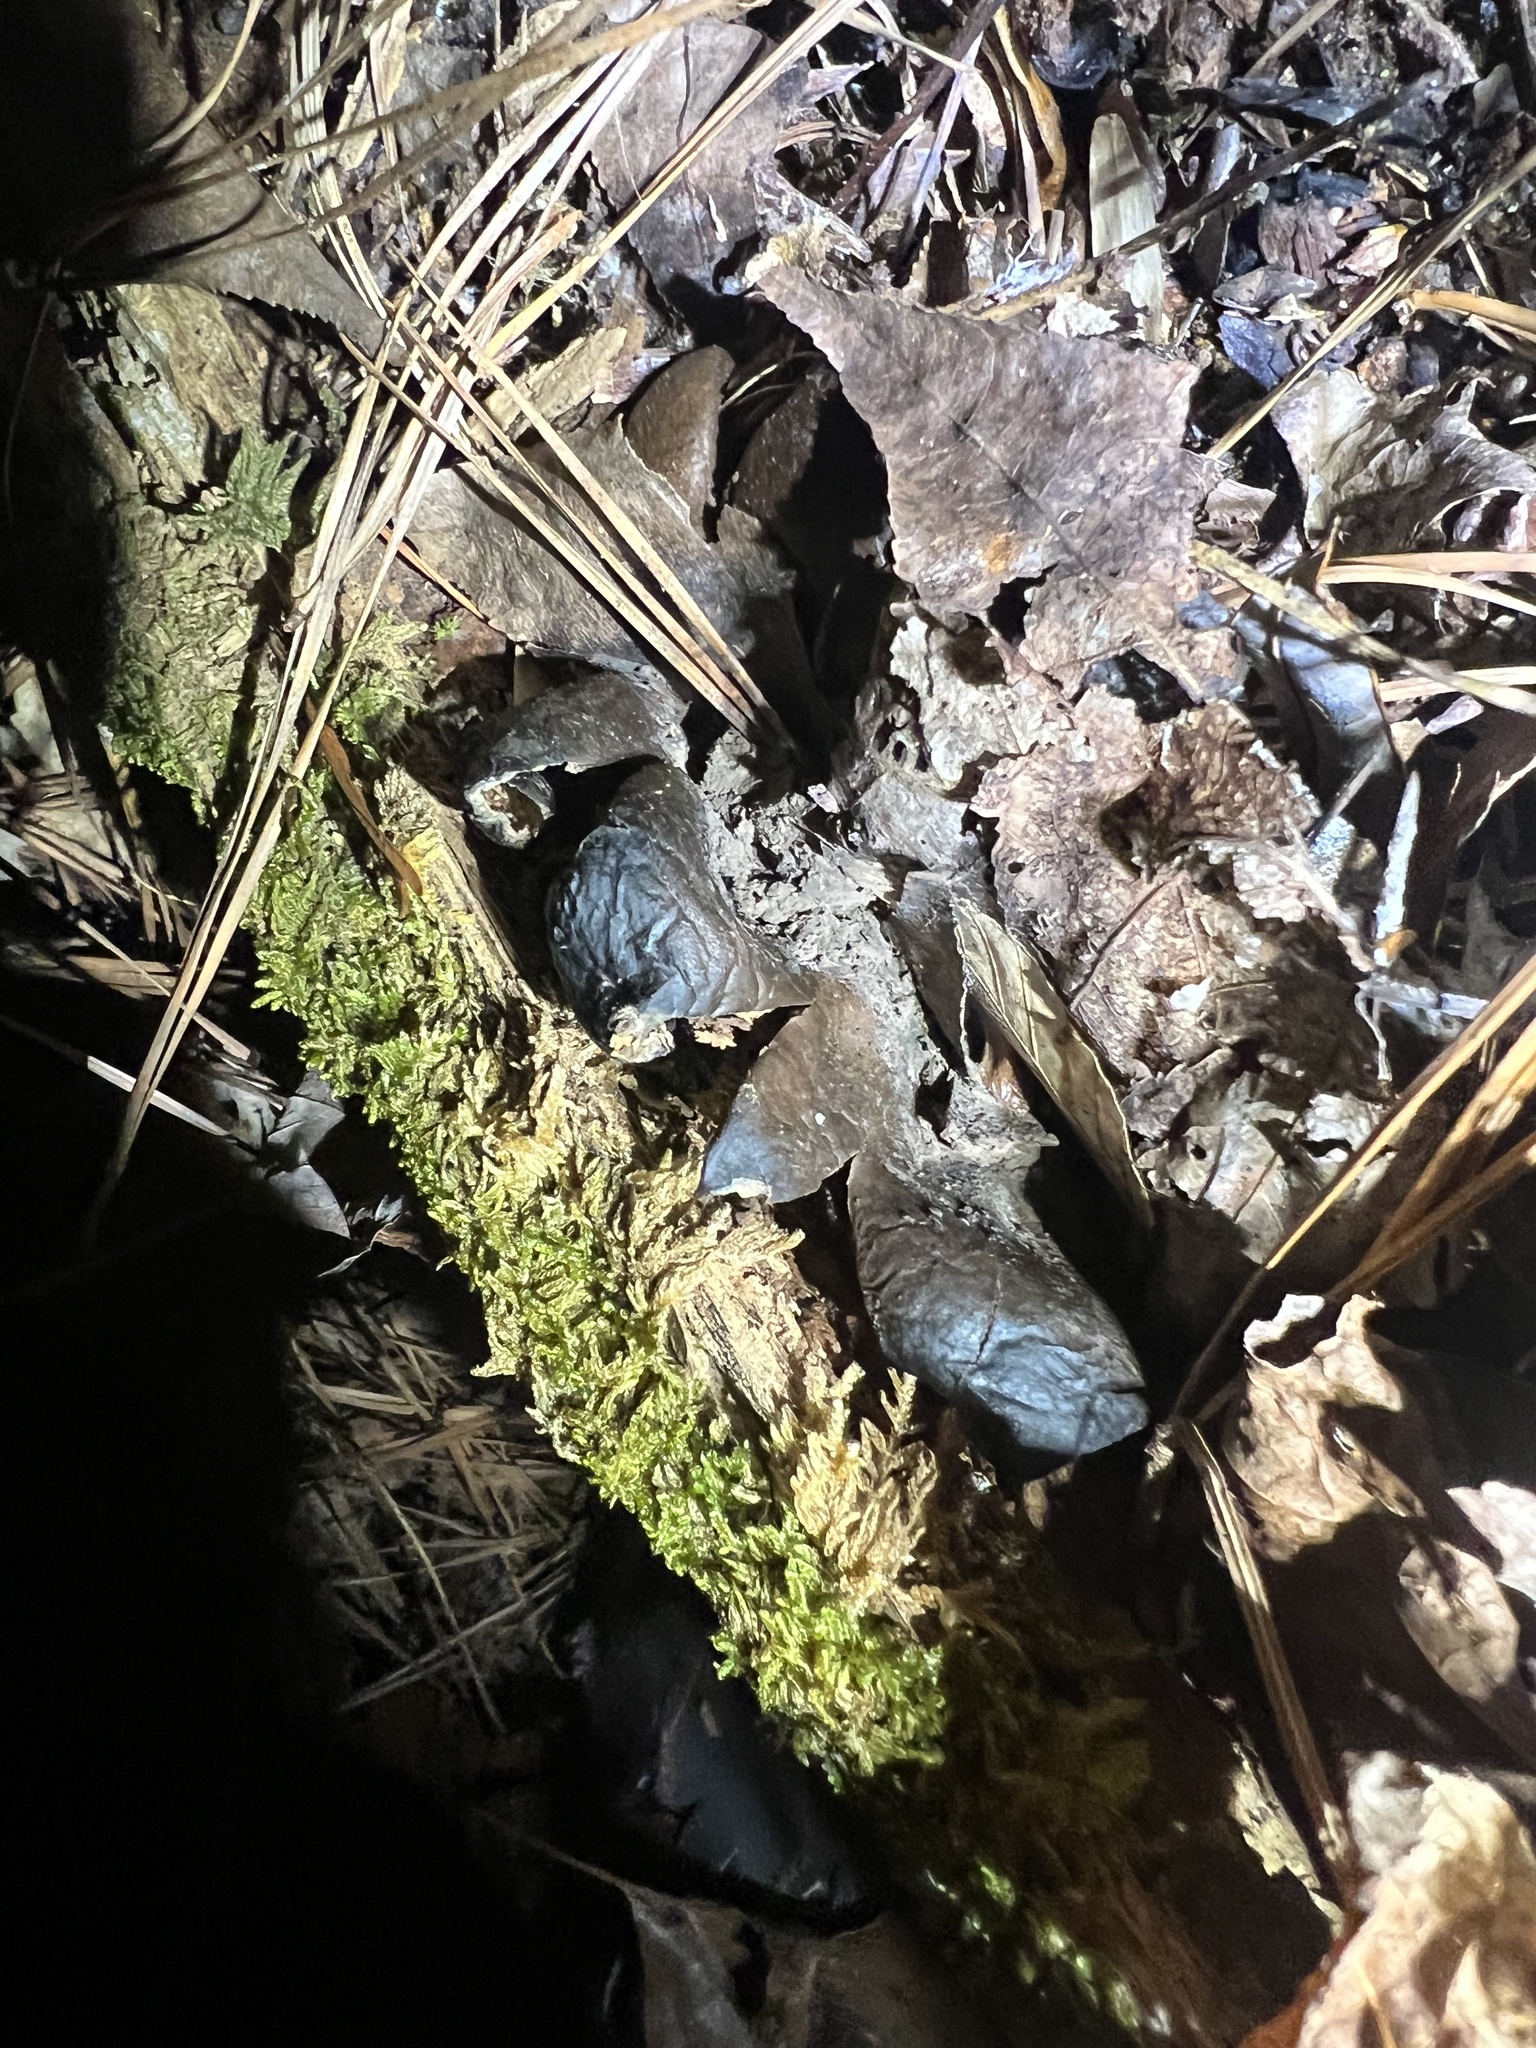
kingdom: Fungi
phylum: Basidiomycota
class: Agaricomycetes
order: Boletales
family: Sclerodermataceae
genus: Scleroderma
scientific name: Scleroderma polyrhizum
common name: Many-rooted earthball
